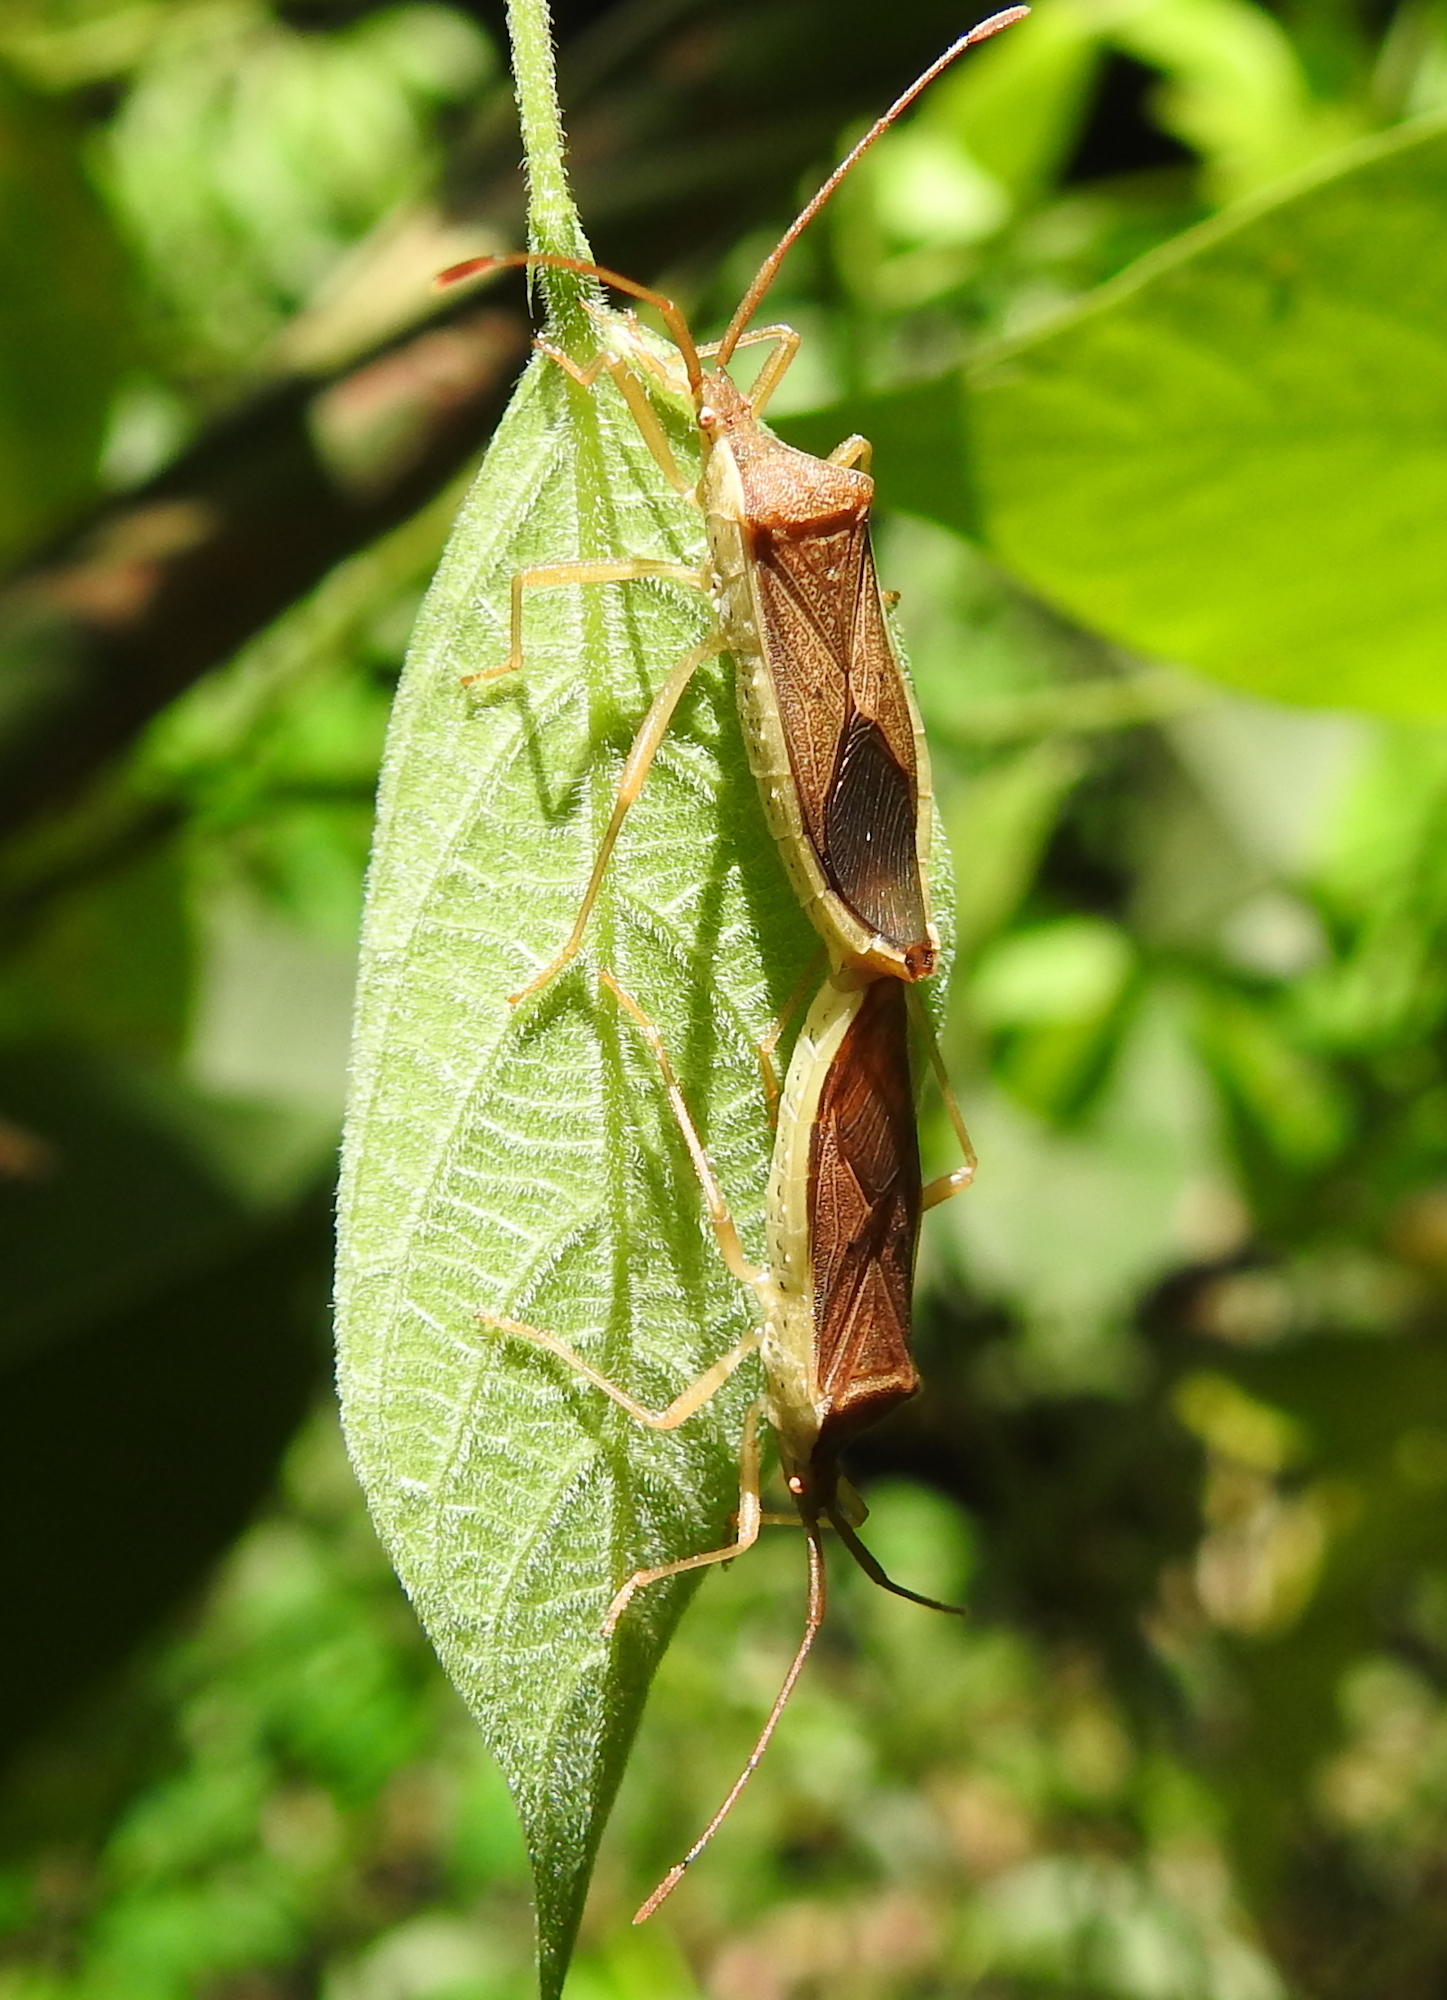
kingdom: Animalia
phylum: Arthropoda
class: Insecta
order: Hemiptera
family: Coreidae
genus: Homoeocerus
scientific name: Homoeocerus marginellus
